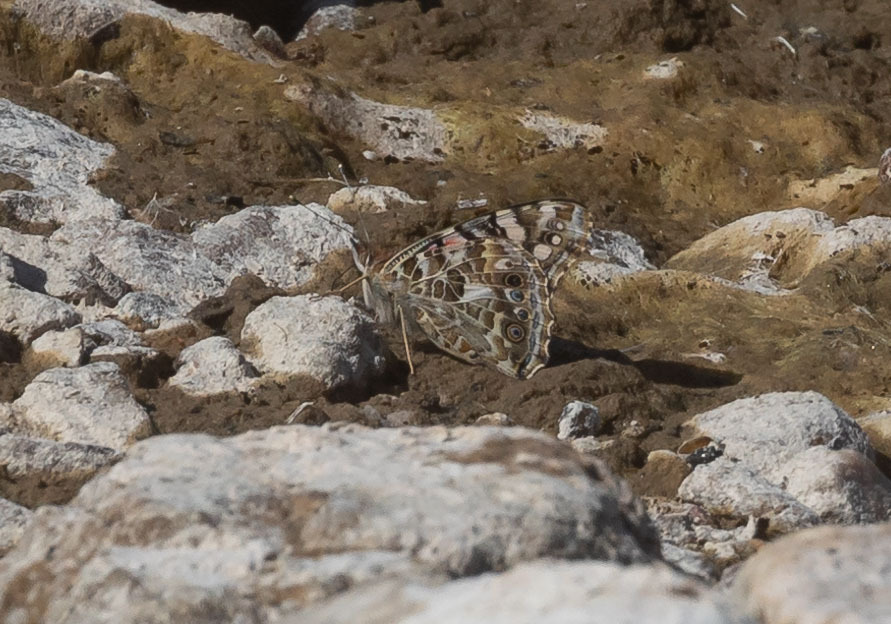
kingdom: Animalia
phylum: Arthropoda
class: Insecta
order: Lepidoptera
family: Nymphalidae
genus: Vanessa
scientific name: Vanessa cardui
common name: Painted lady
